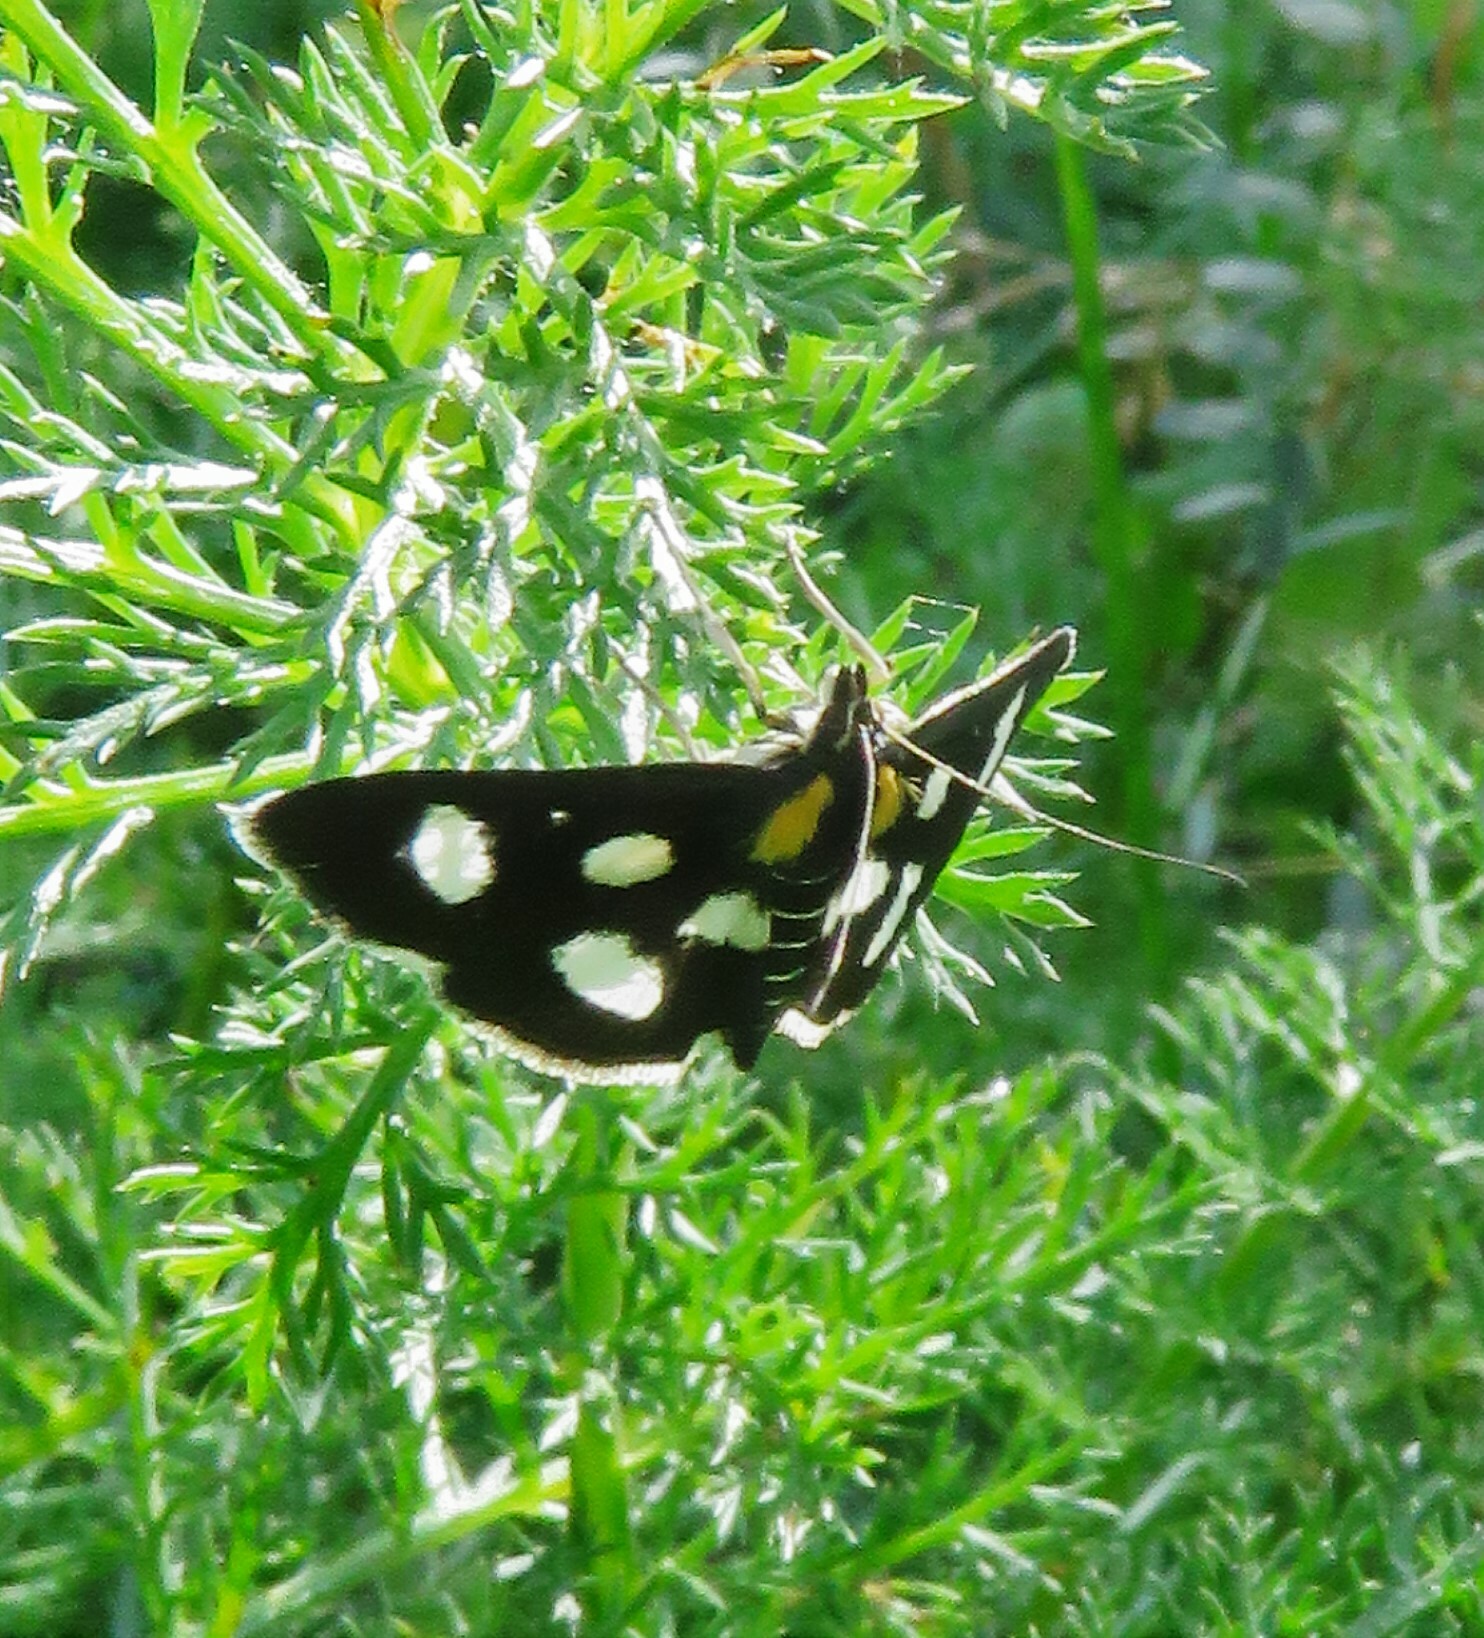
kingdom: Animalia
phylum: Arthropoda
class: Insecta
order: Lepidoptera
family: Crambidae
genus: Anania
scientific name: Anania funebris
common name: White-spotted sable moth
